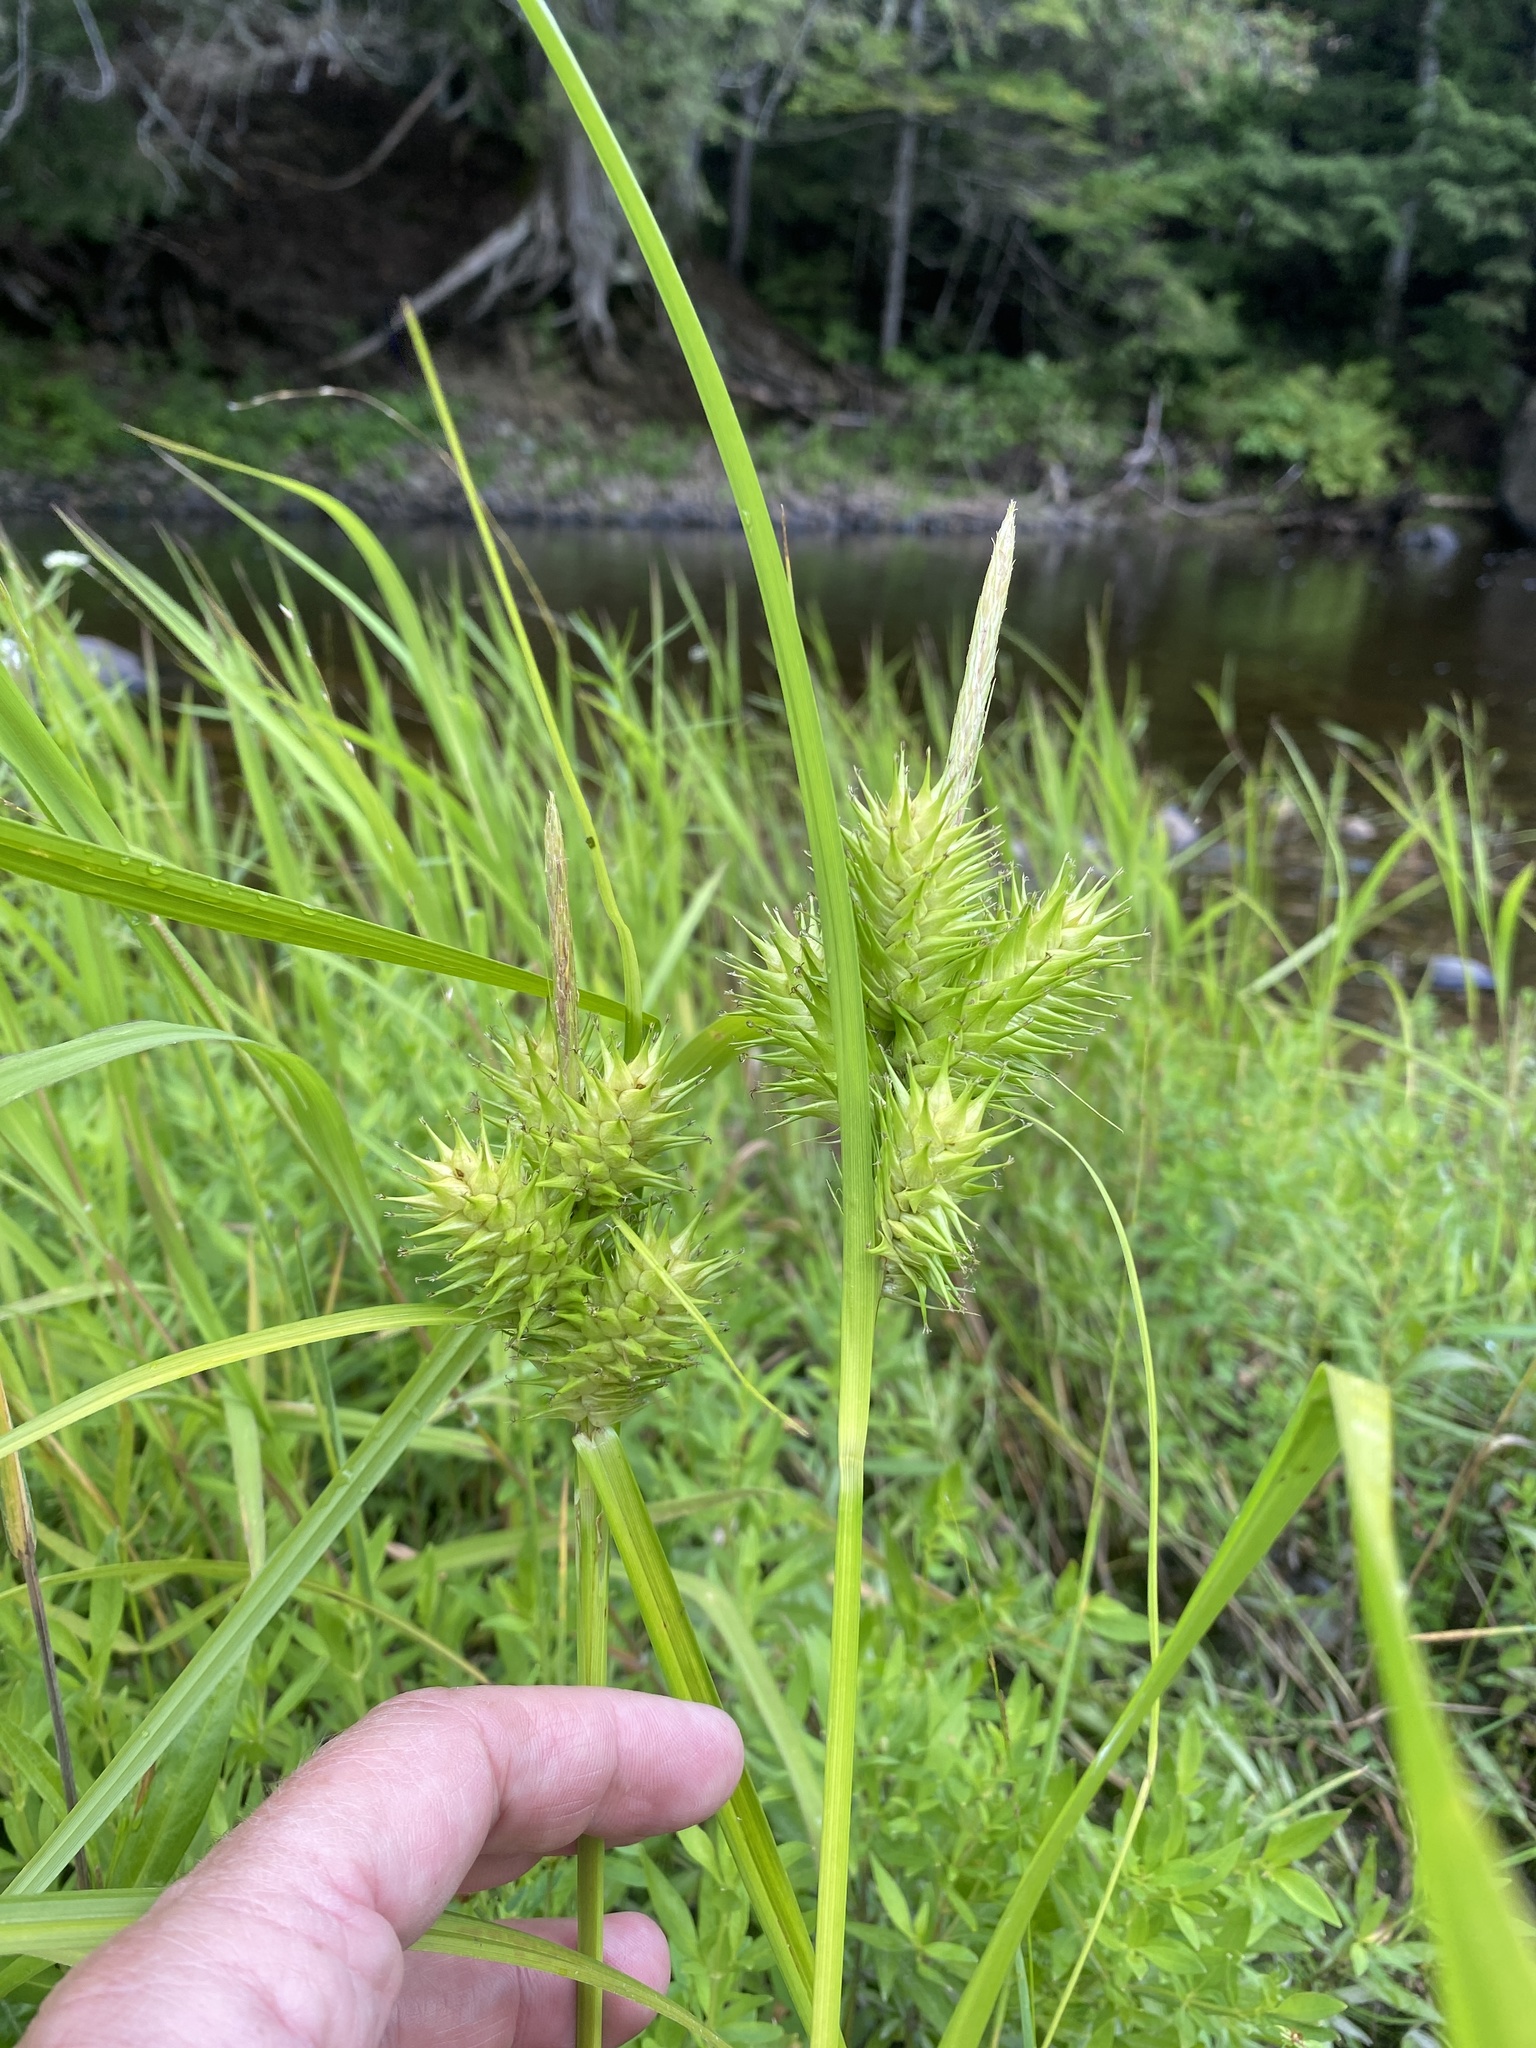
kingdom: Plantae
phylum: Tracheophyta
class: Liliopsida
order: Poales
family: Cyperaceae
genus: Carex
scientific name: Carex lupulina
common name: Hop sedge
